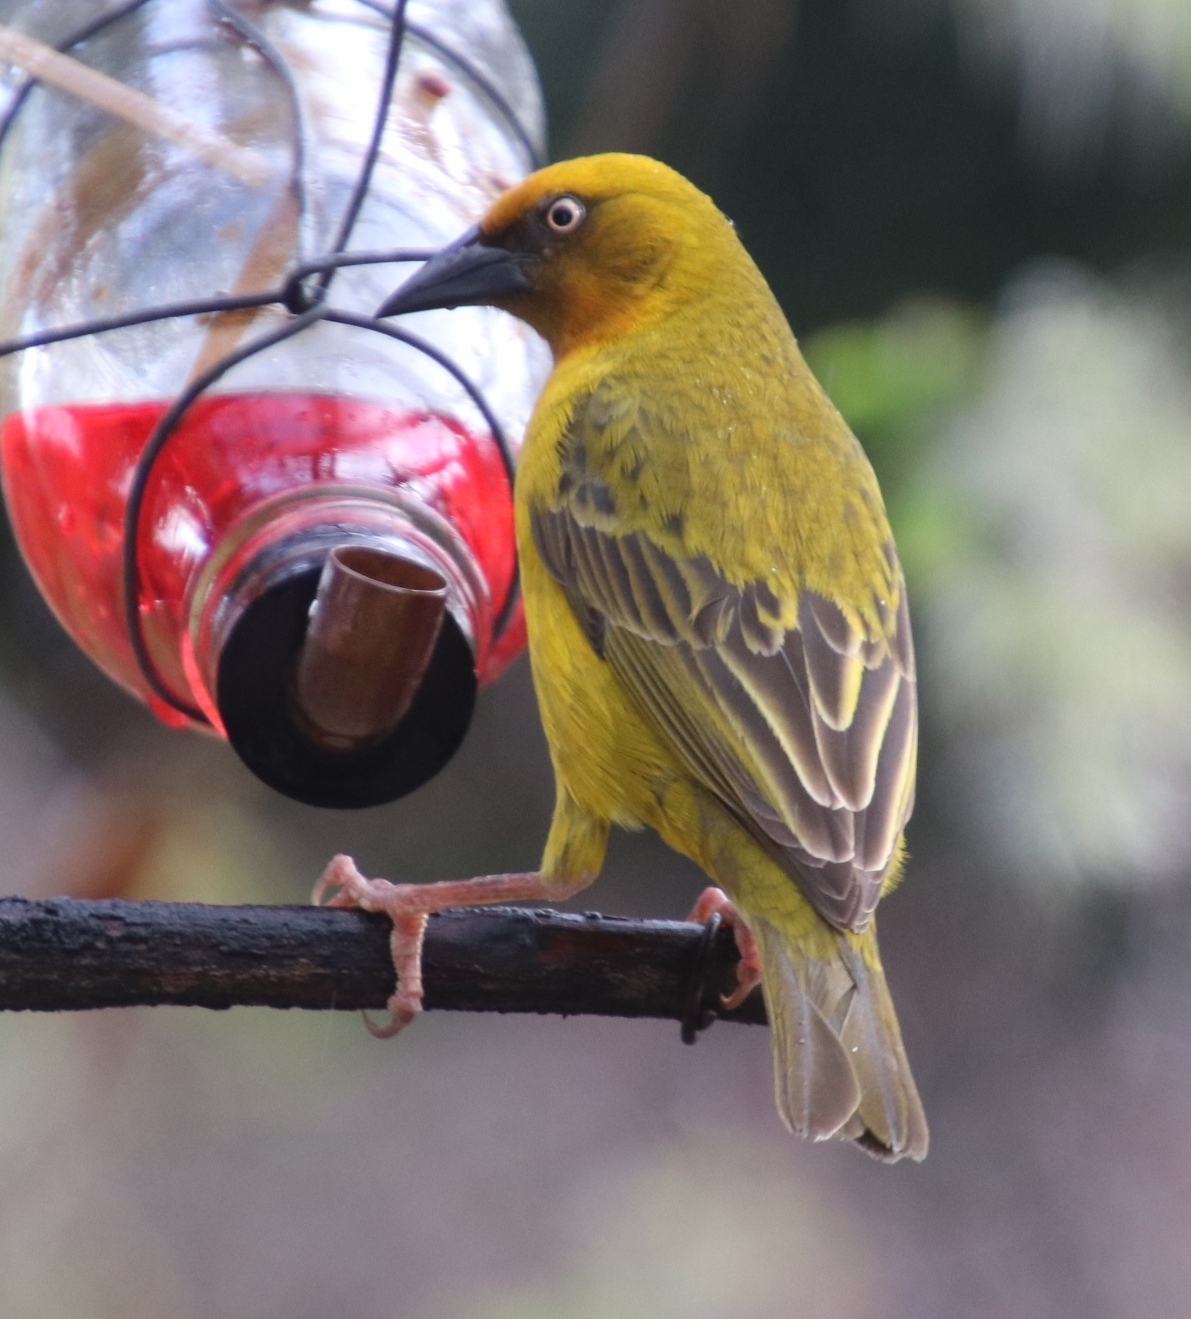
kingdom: Animalia
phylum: Chordata
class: Aves
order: Passeriformes
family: Ploceidae
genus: Ploceus
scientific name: Ploceus capensis
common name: Cape weaver
